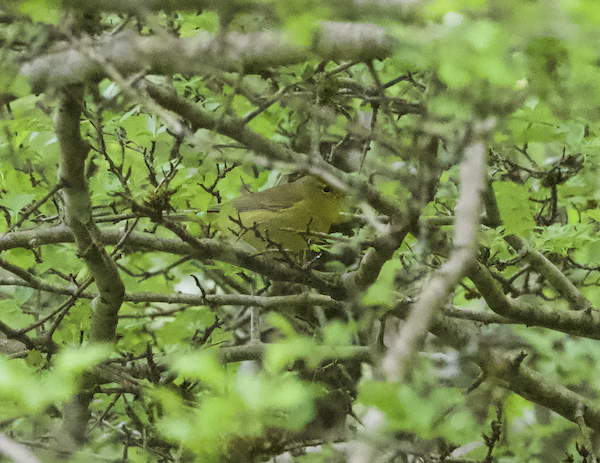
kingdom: Animalia
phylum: Chordata
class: Aves
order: Passeriformes
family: Parulidae
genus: Leiothlypis
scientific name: Leiothlypis celata
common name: Orange-crowned warbler
